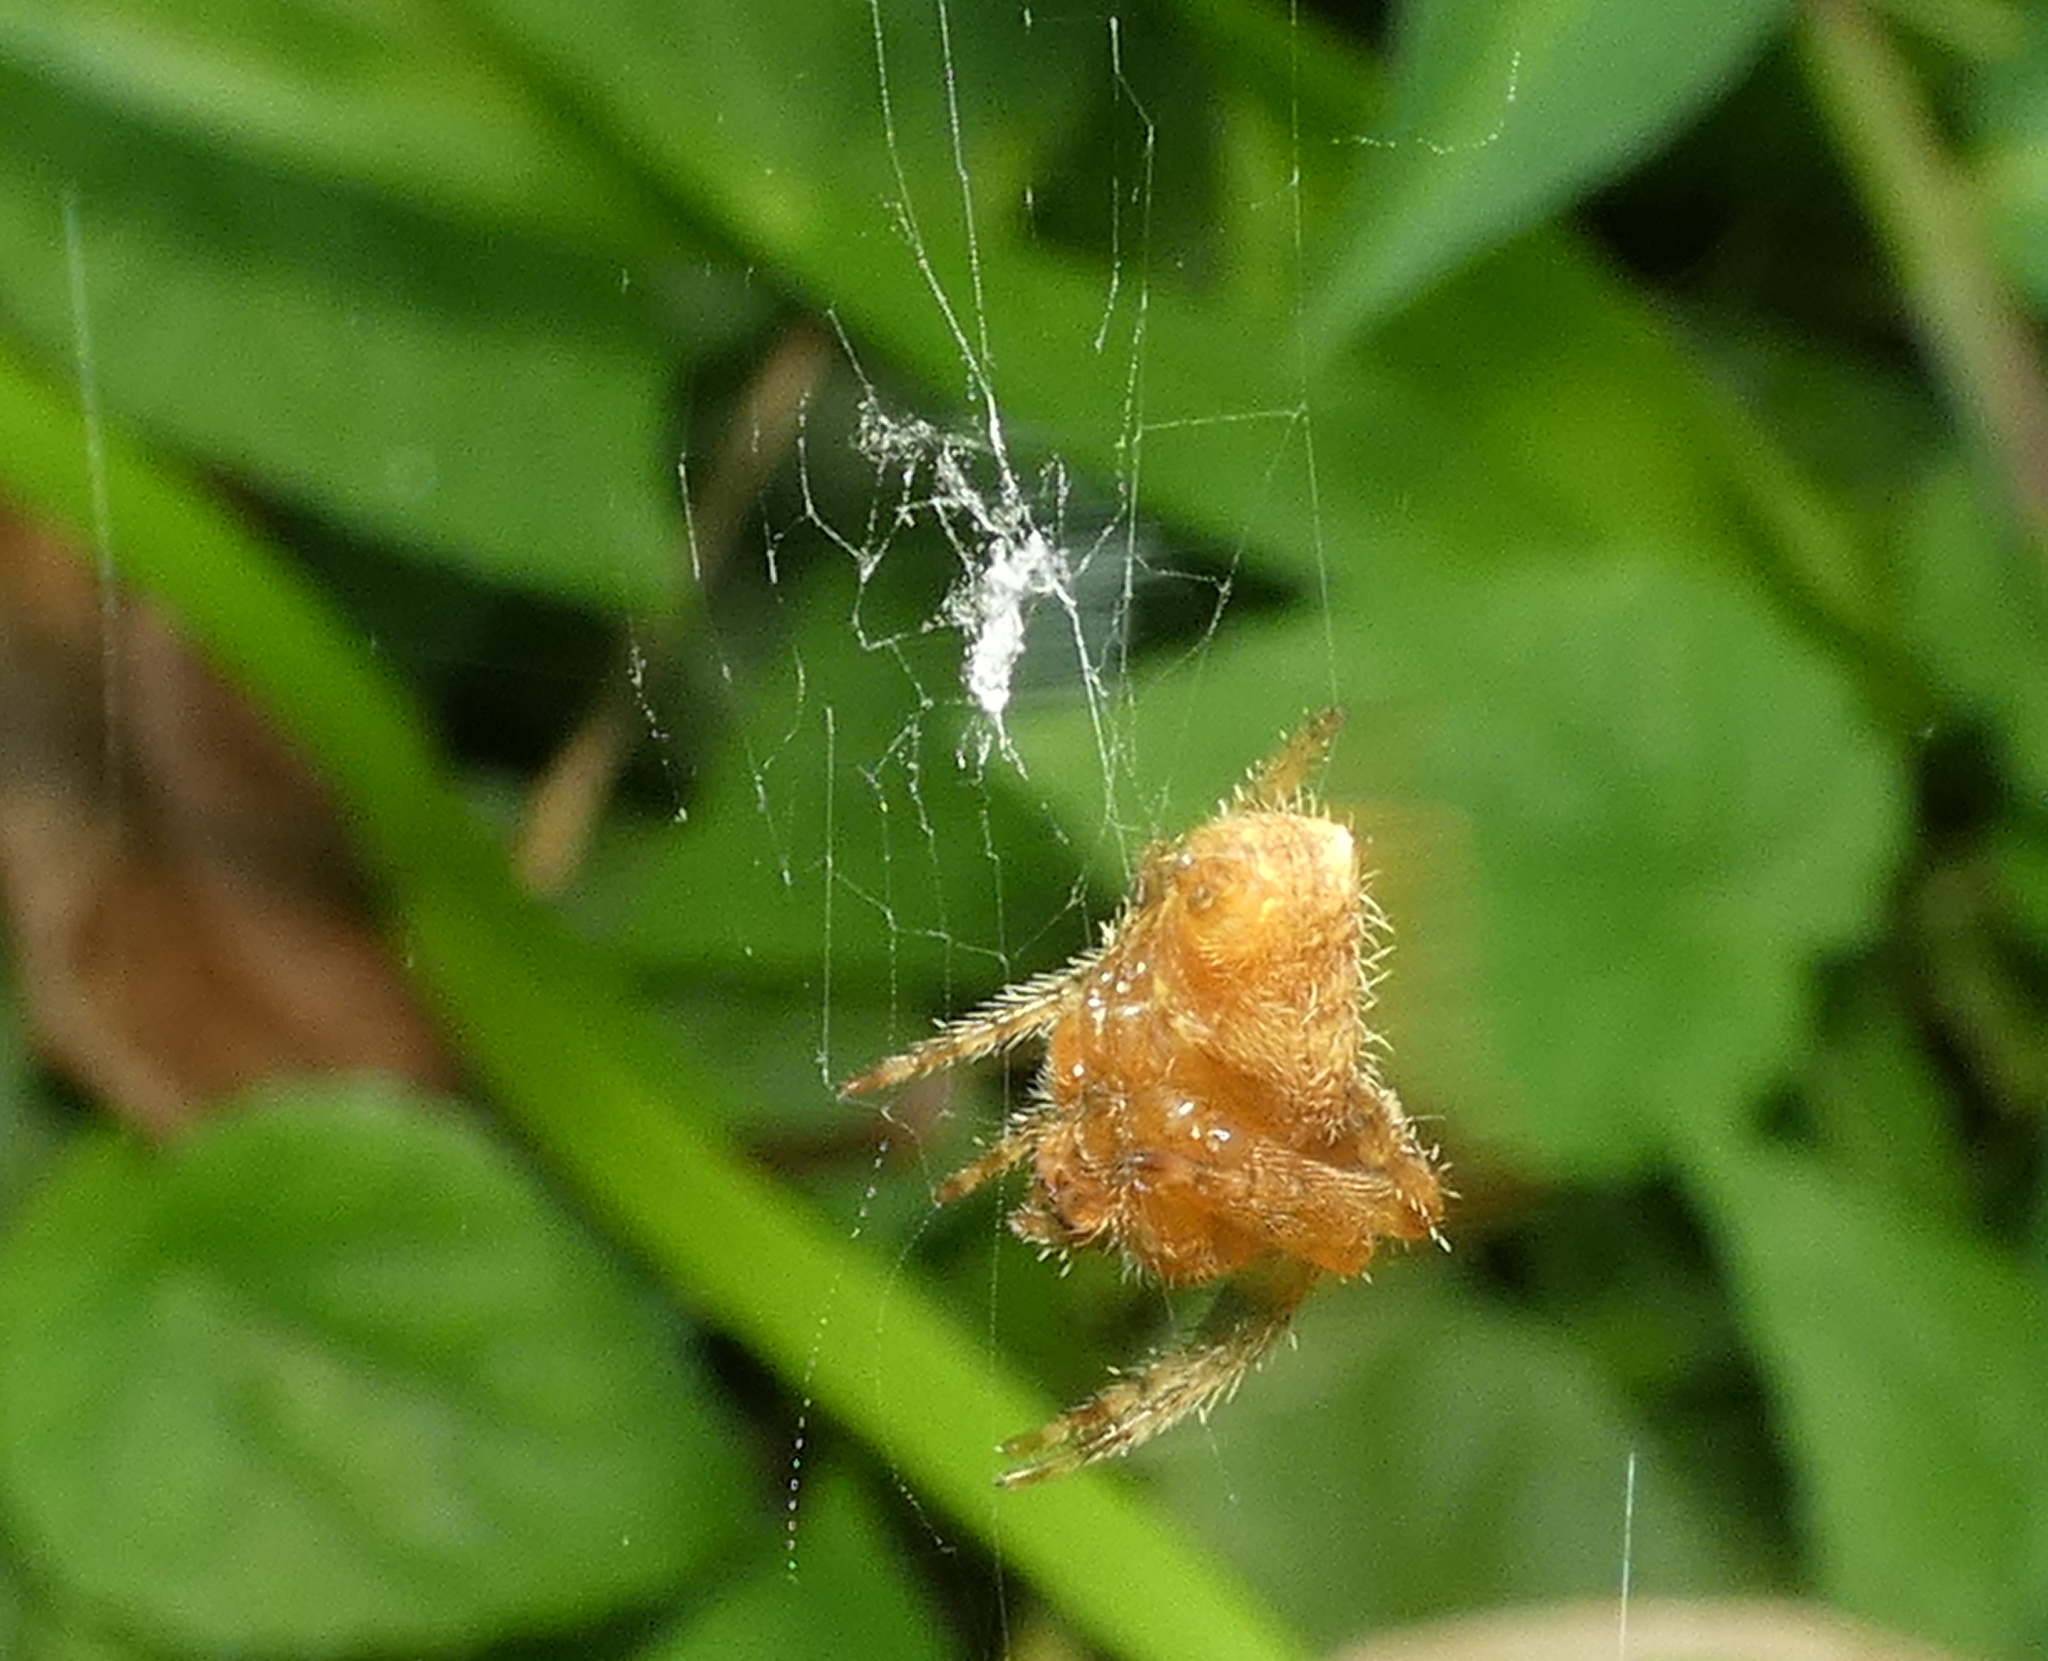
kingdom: Animalia
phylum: Arthropoda
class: Arachnida
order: Araneae
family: Araneidae
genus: Eriophora
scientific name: Eriophora edax
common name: Orb weavers
